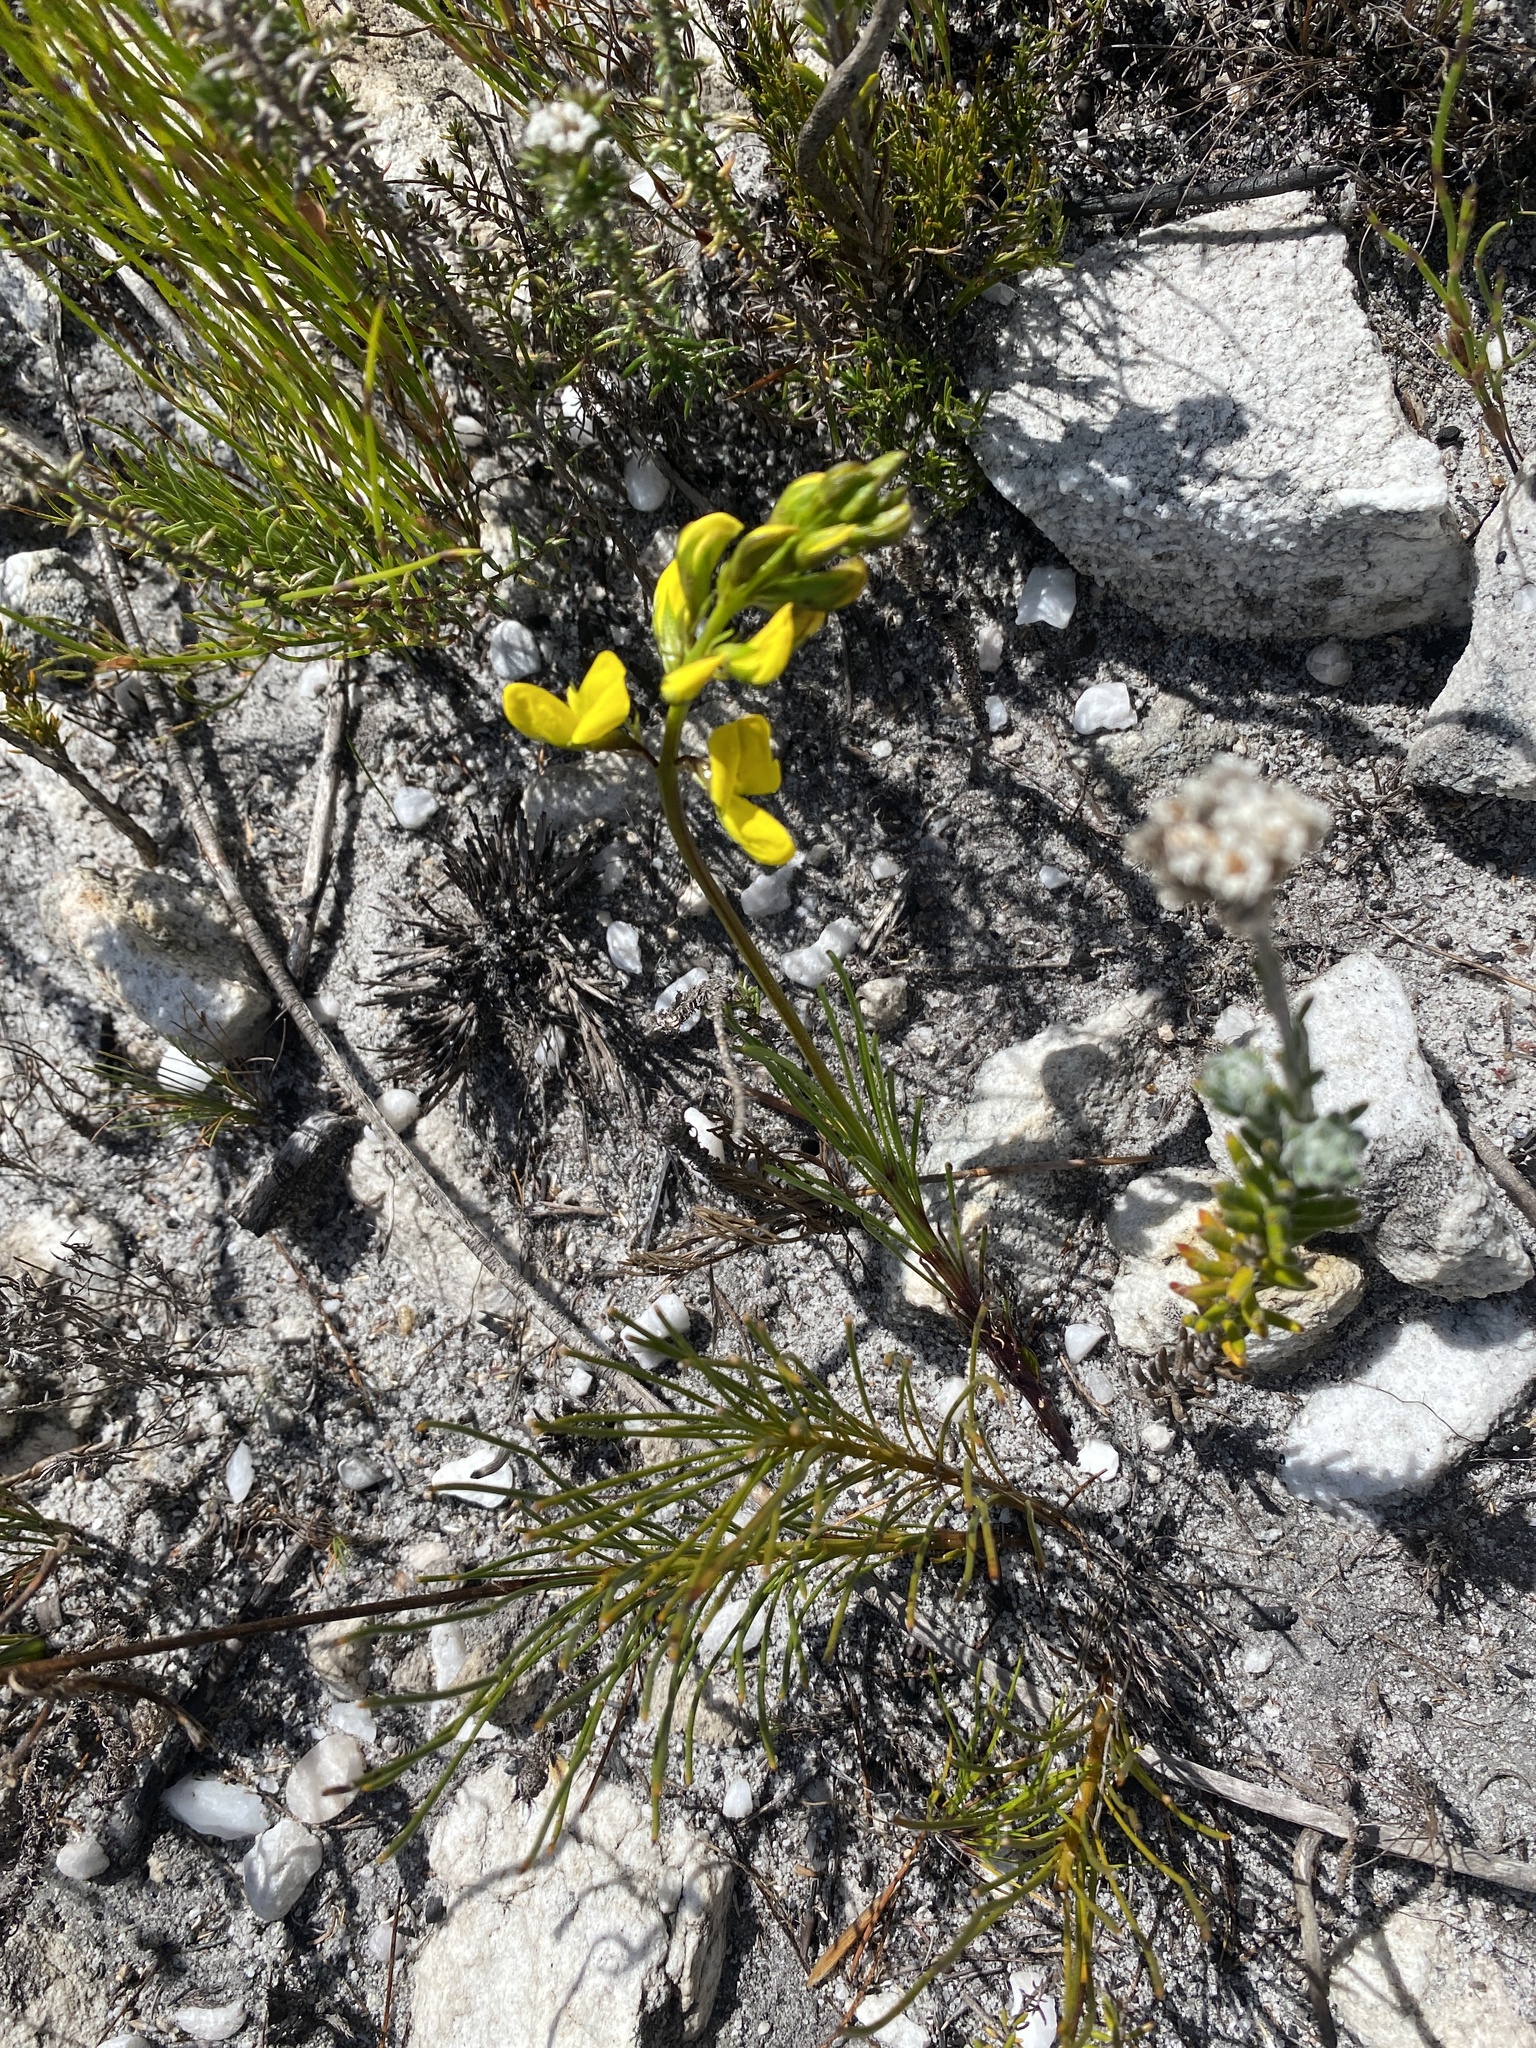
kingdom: Plantae
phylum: Tracheophyta
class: Magnoliopsida
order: Fabales
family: Fabaceae
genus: Lebeckia
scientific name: Lebeckia grandiflora
